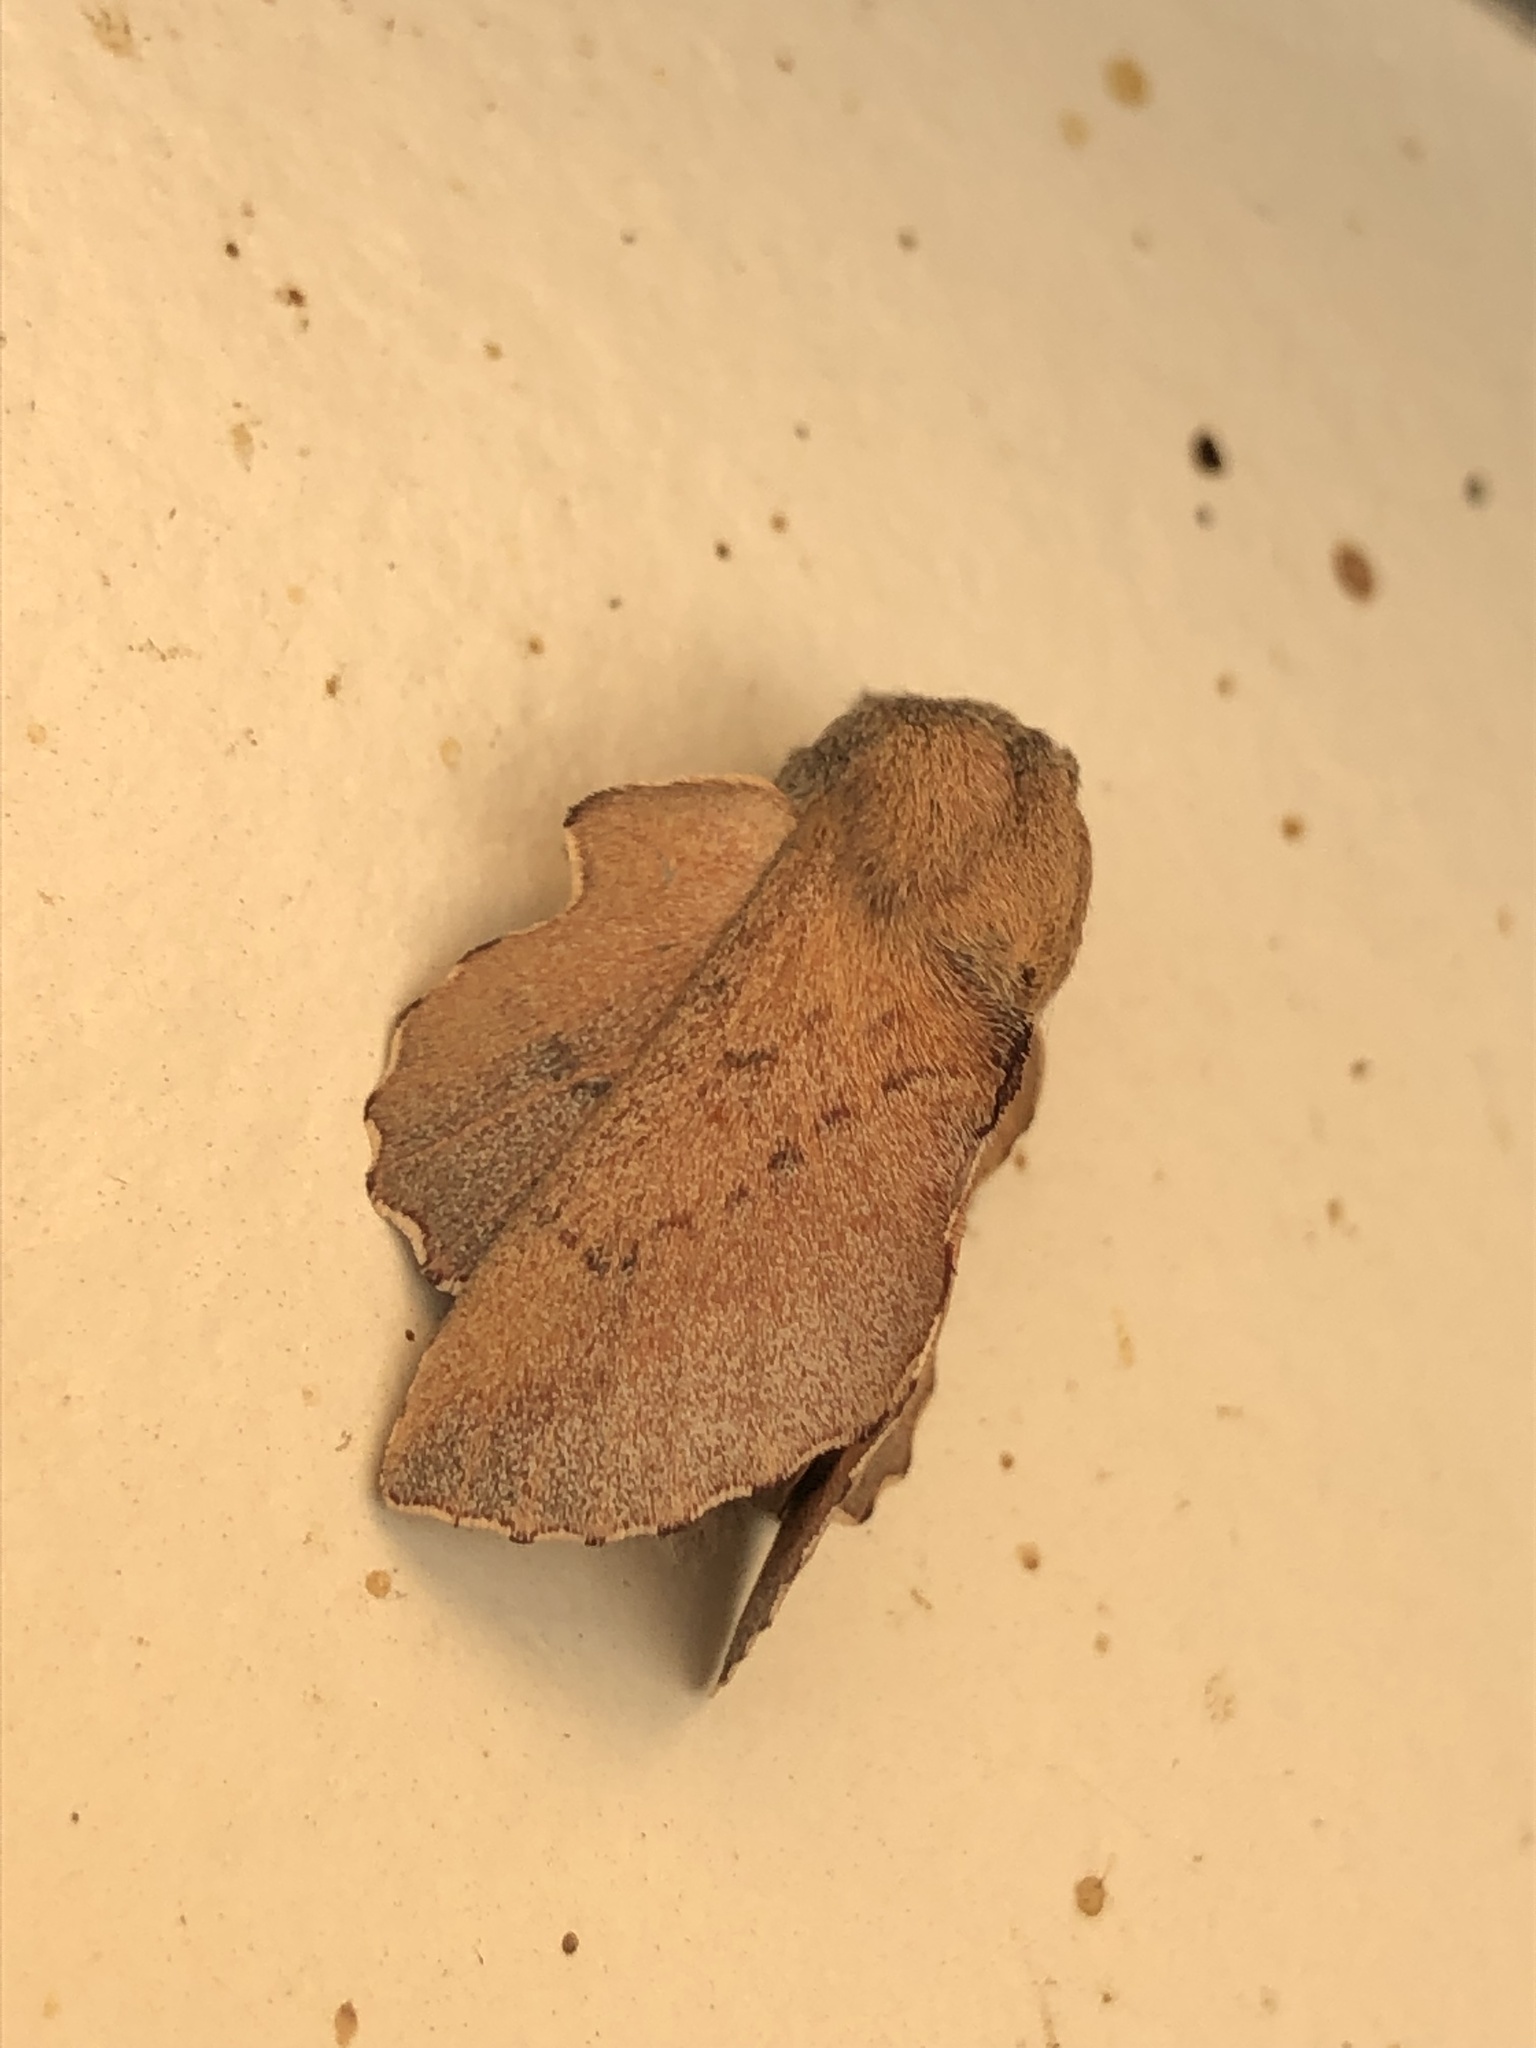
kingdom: Animalia
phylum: Arthropoda
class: Insecta
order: Lepidoptera
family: Lasiocampidae
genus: Phyllodesma
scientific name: Phyllodesma americana
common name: American lappet moth
